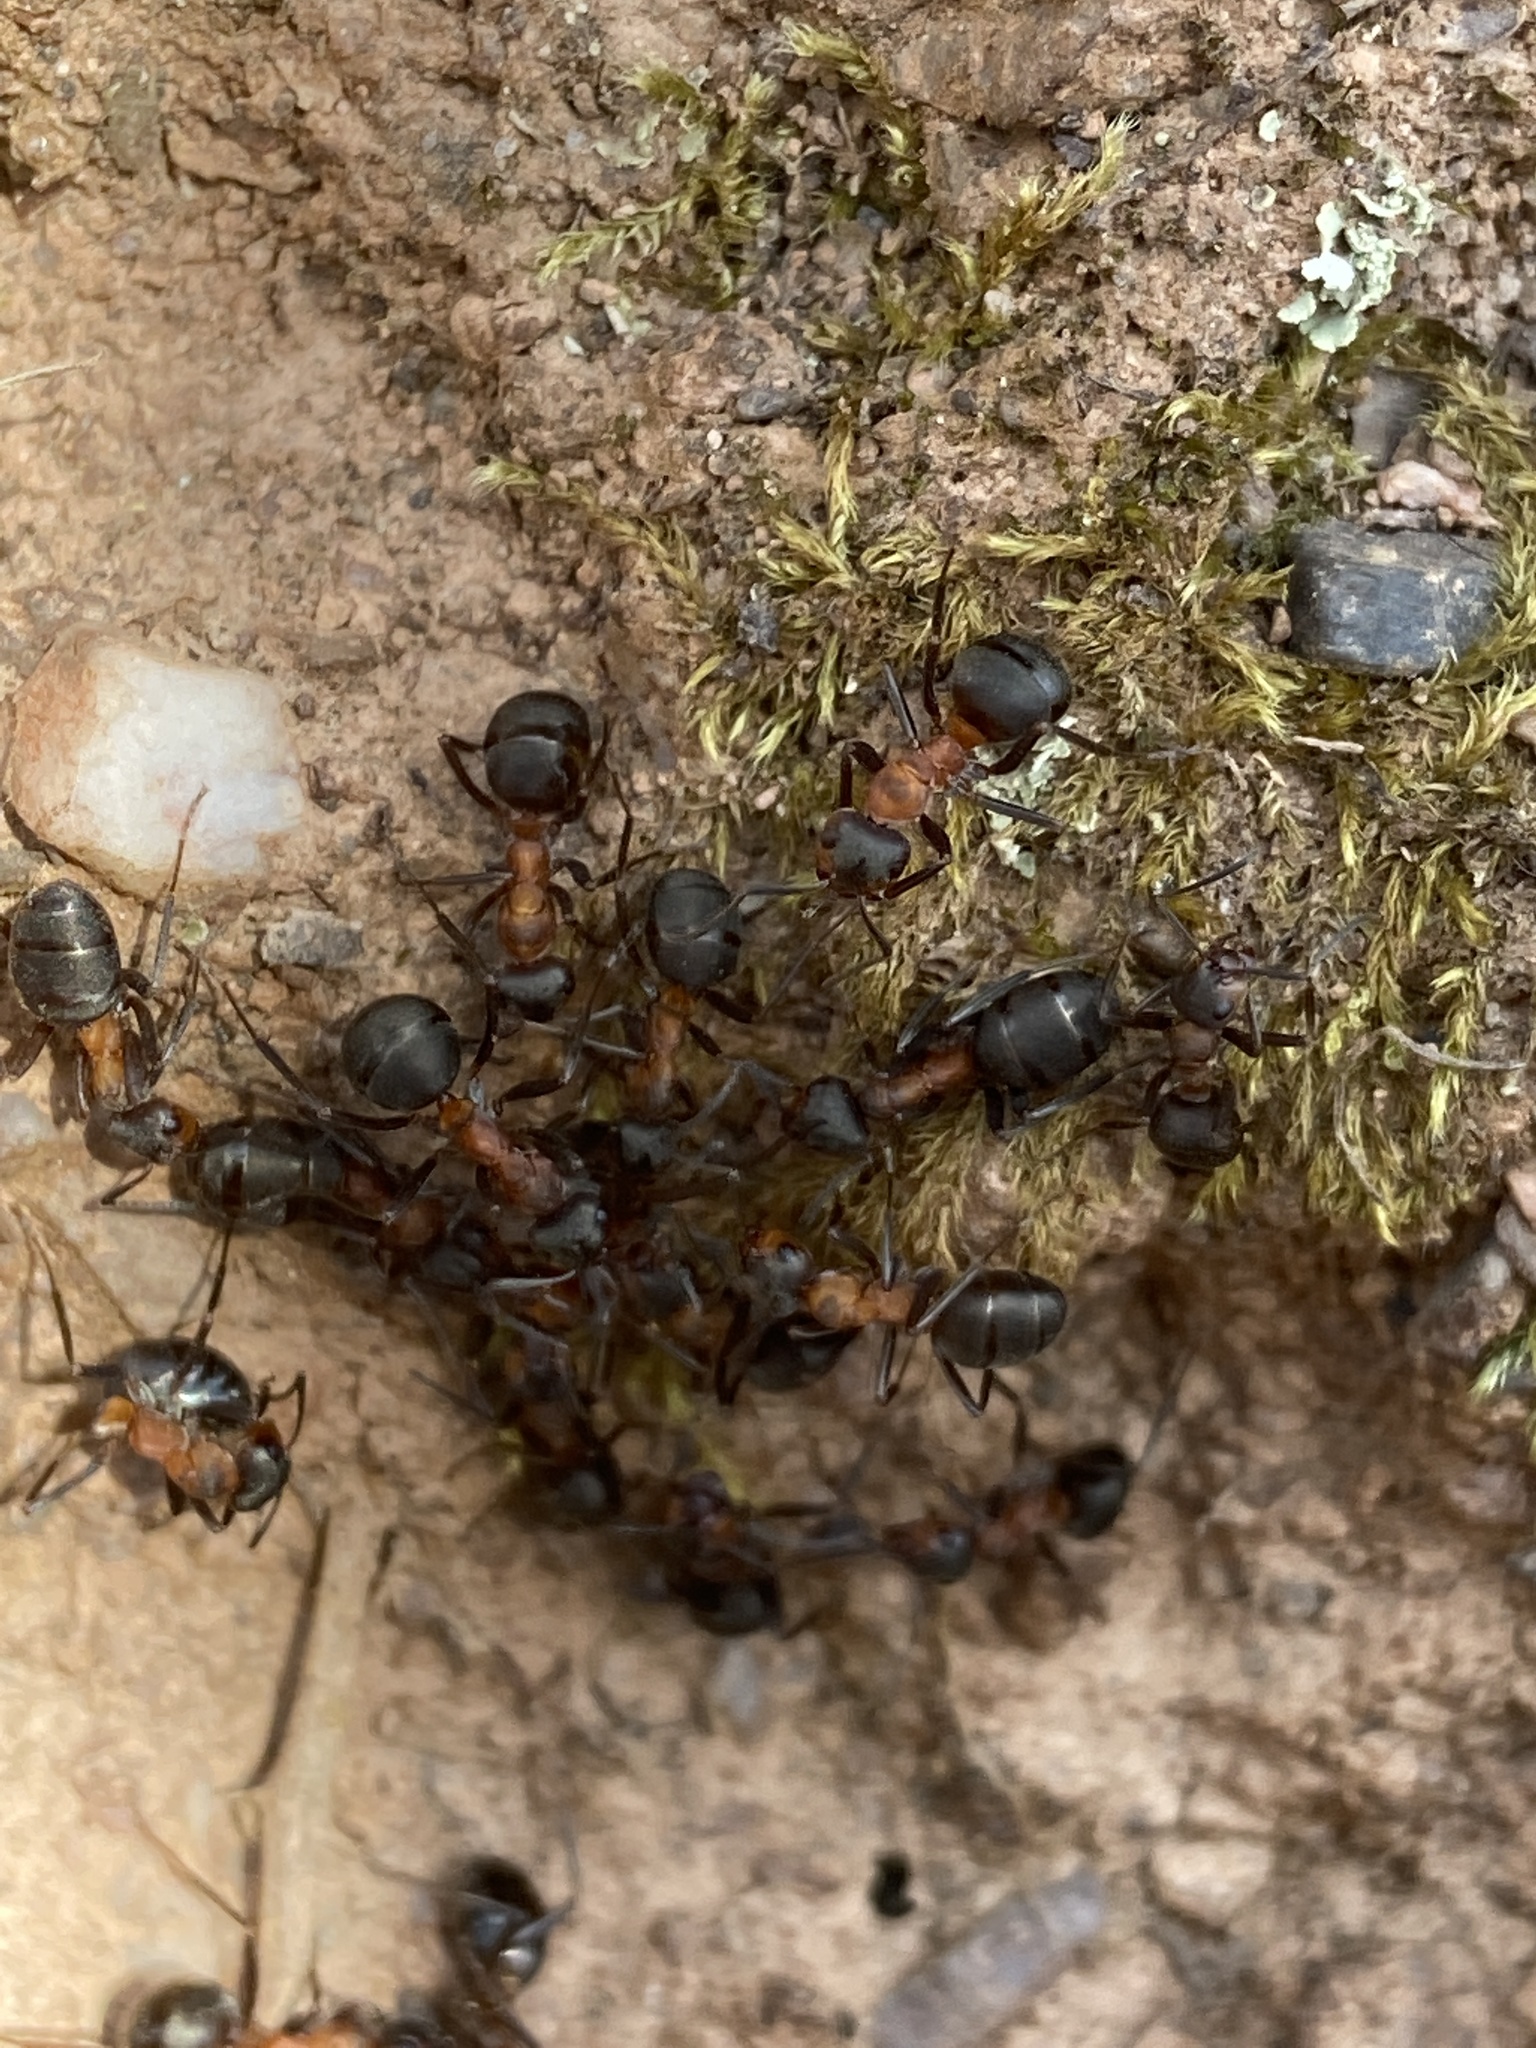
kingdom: Animalia
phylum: Arthropoda
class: Insecta
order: Hymenoptera
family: Formicidae
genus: Formica
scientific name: Formica rufa
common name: Red wood ant
